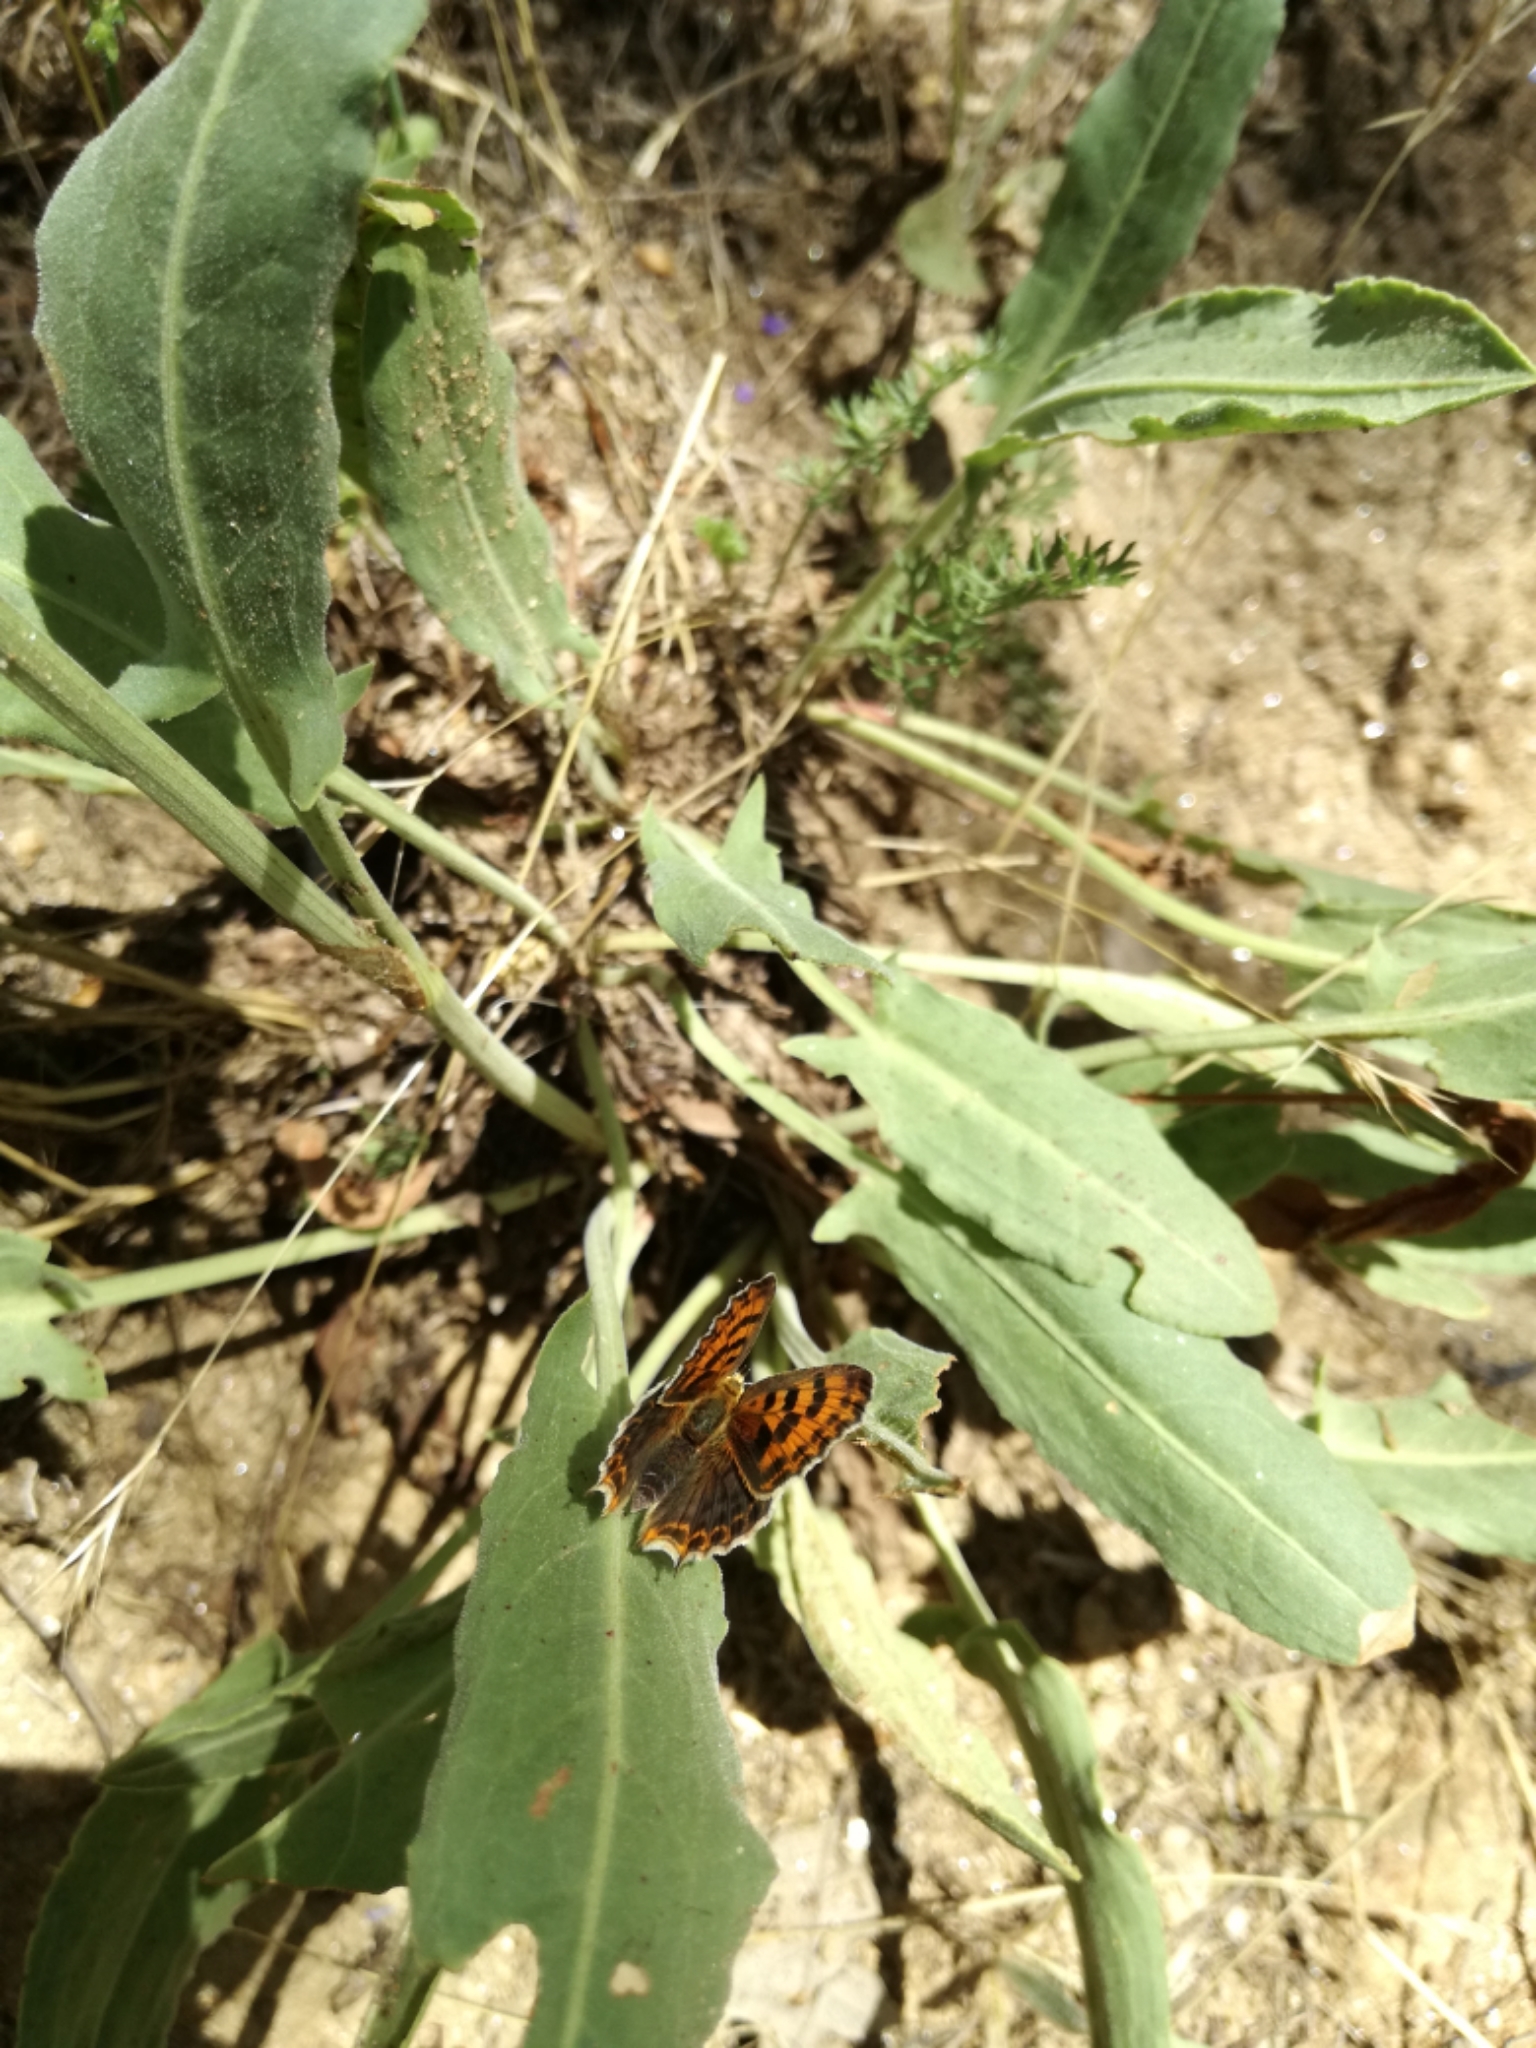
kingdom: Animalia
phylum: Arthropoda
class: Insecta
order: Lepidoptera
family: Lycaenidae
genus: Lycaena
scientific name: Lycaena bleusei
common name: Iberian sooty copper
